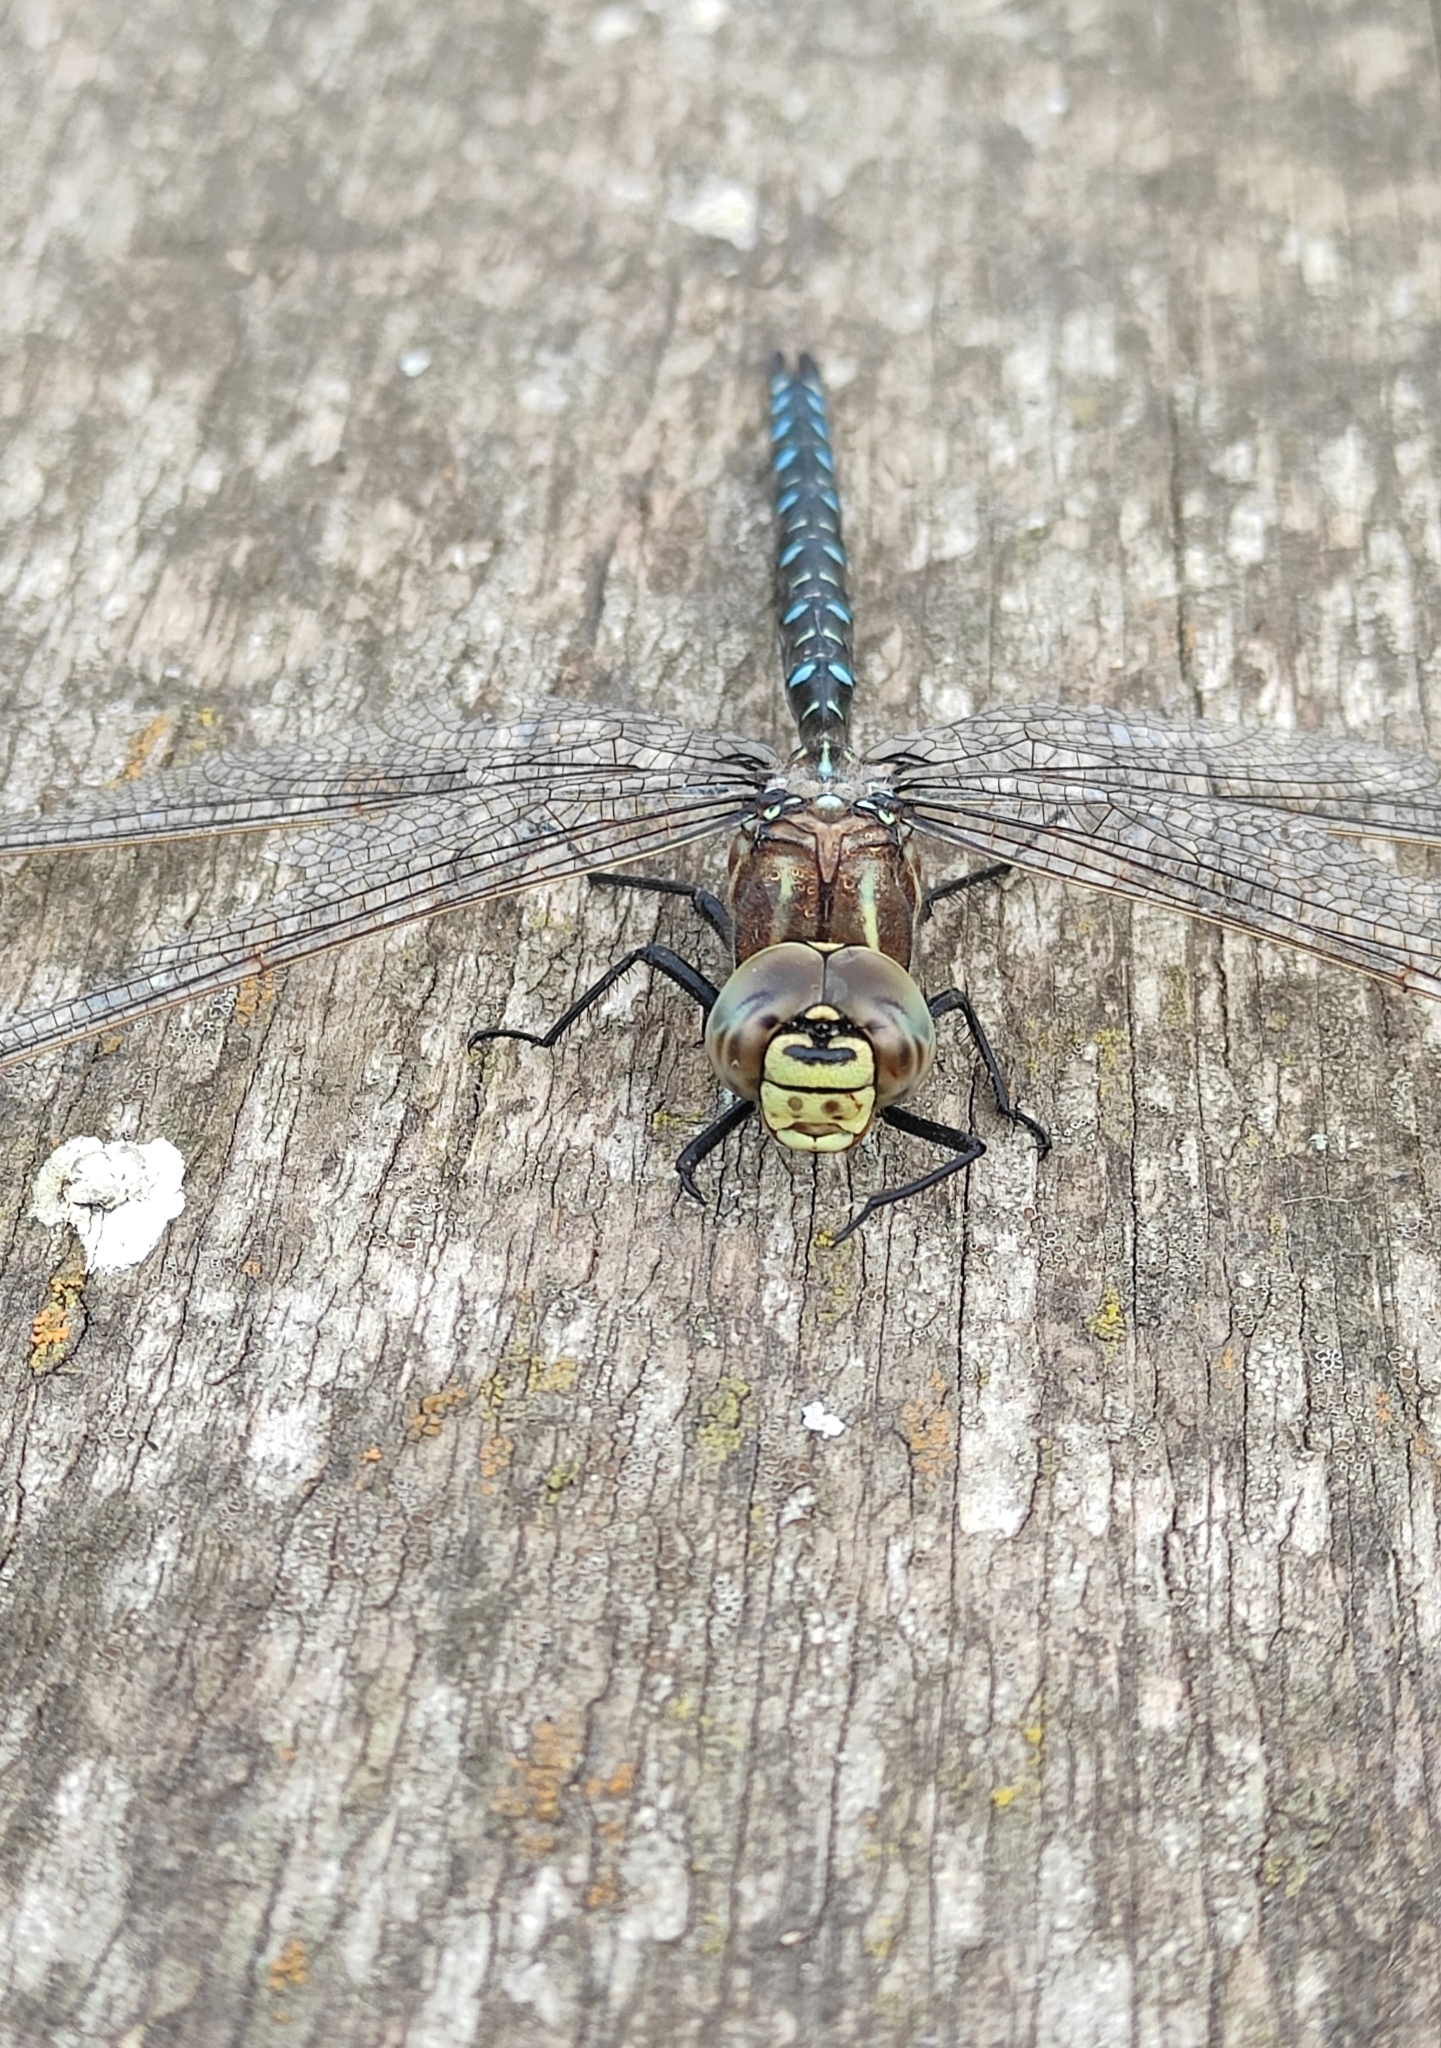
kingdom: Animalia
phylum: Arthropoda
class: Insecta
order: Odonata
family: Aeshnidae
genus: Aeshna
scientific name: Aeshna juncea
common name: Moorland hawker
